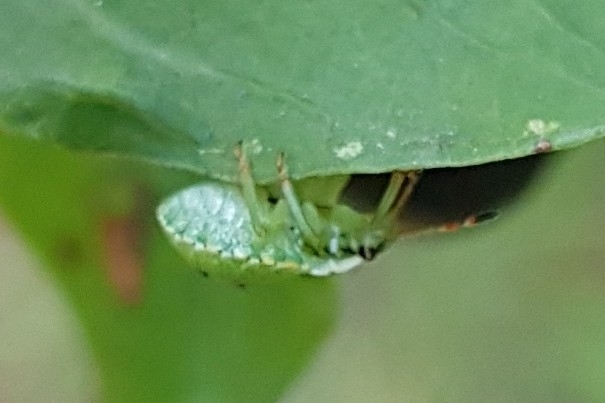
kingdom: Animalia
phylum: Arthropoda
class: Insecta
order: Hemiptera
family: Pentatomidae
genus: Palomena
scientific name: Palomena prasina
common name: Green shieldbug
